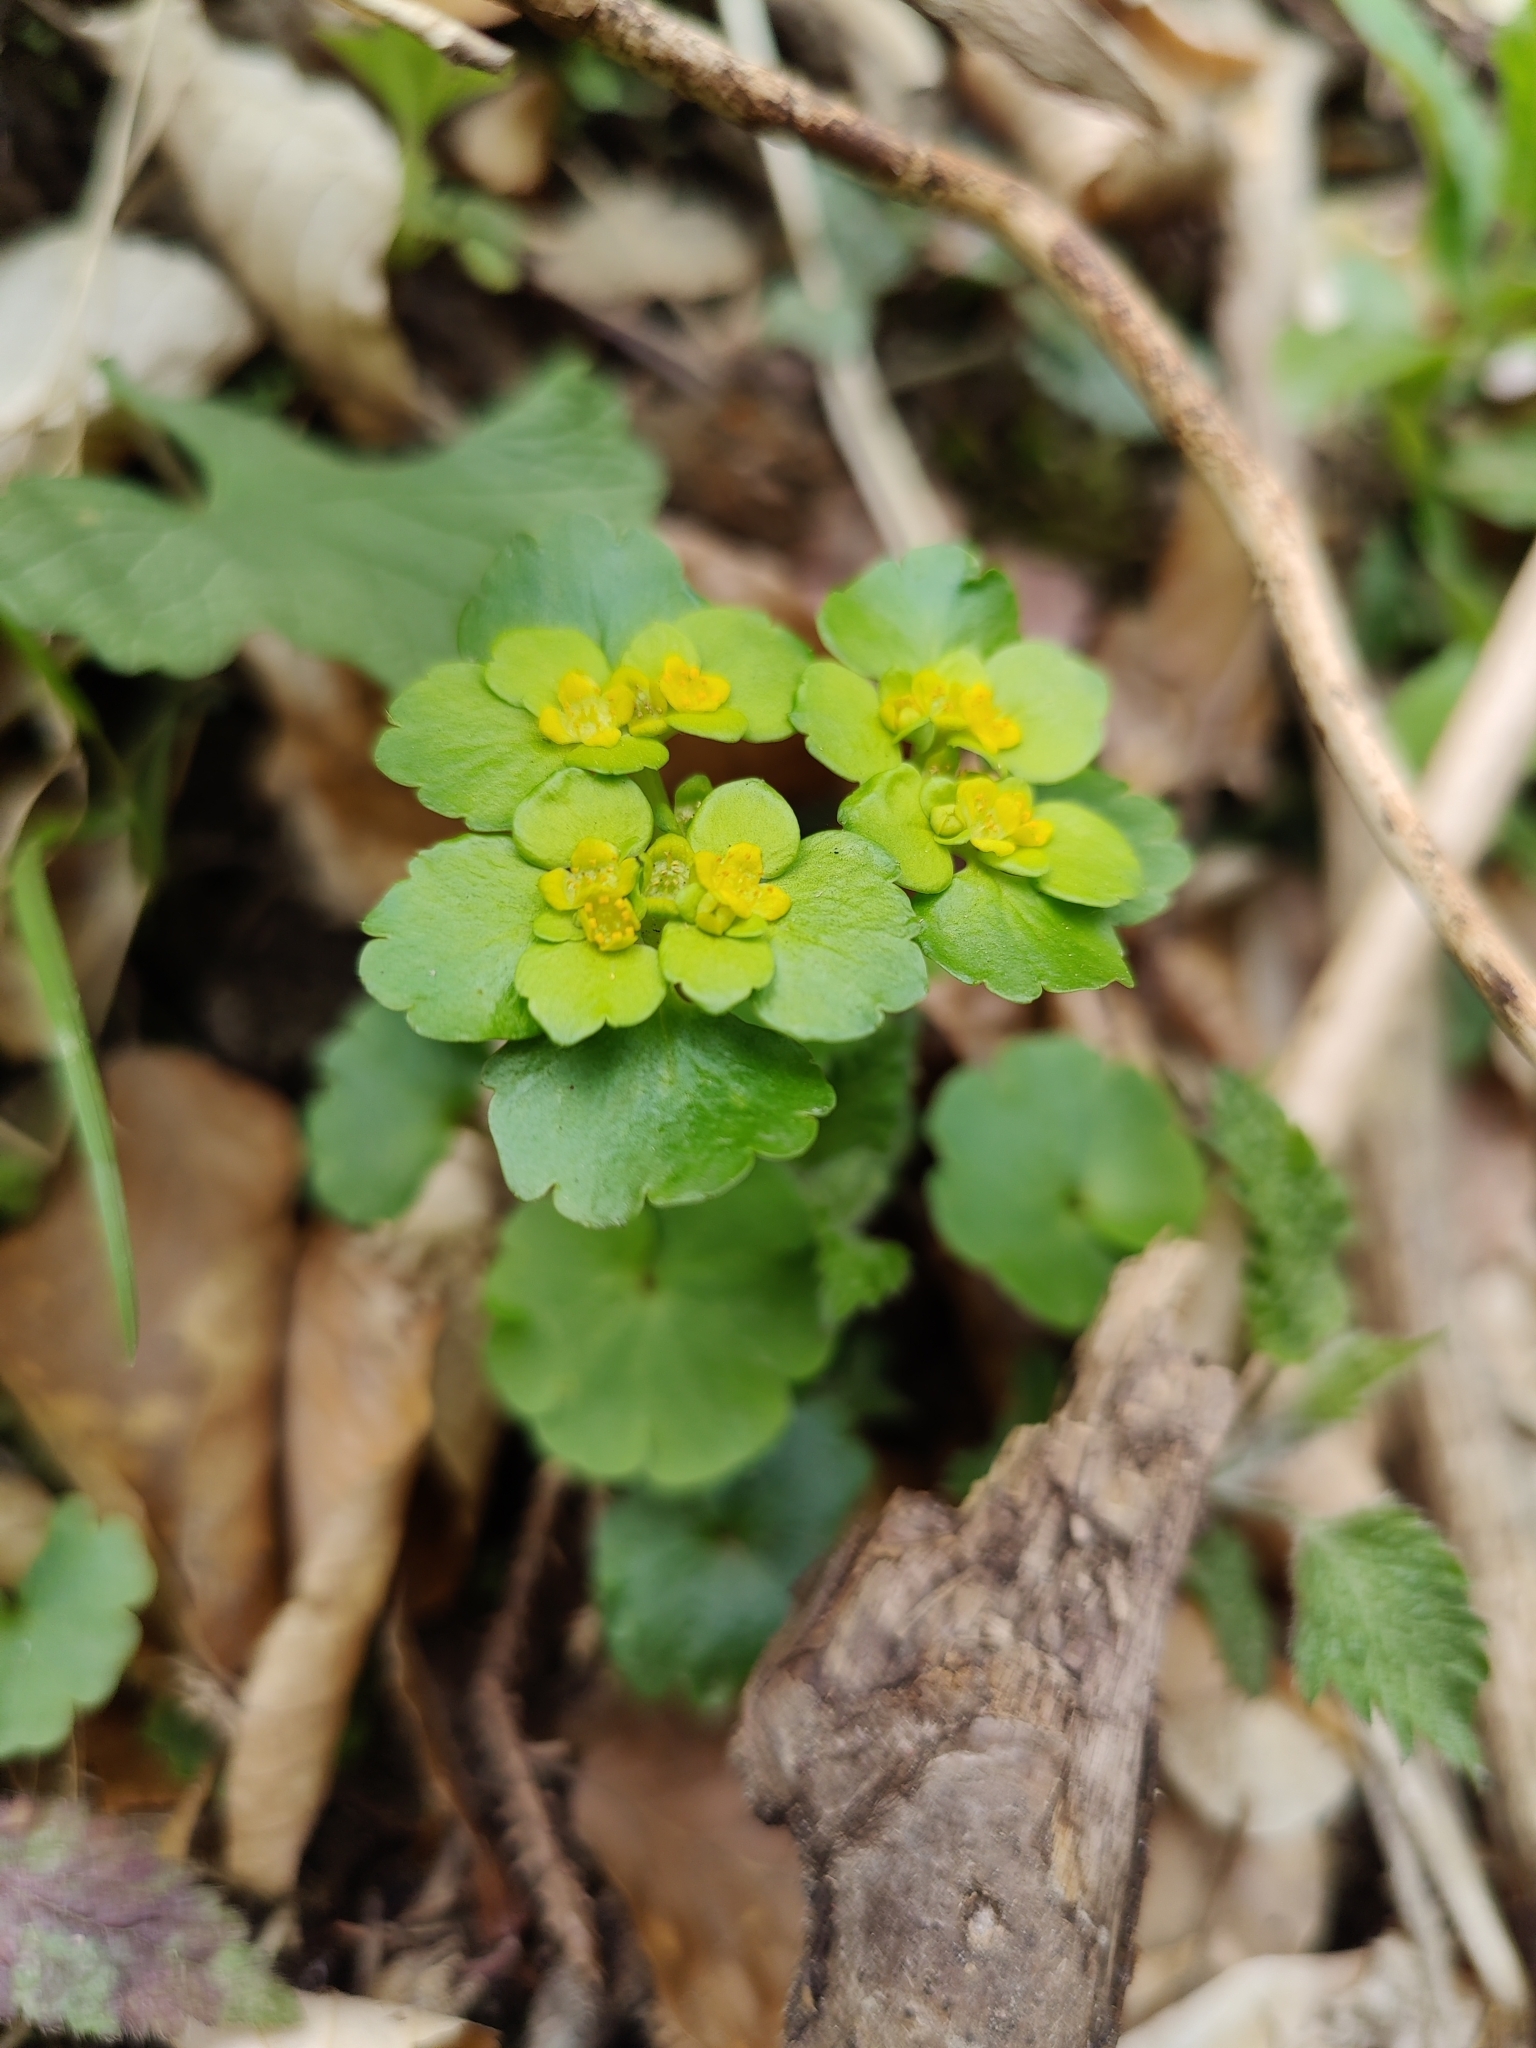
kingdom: Plantae
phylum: Tracheophyta
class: Magnoliopsida
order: Saxifragales
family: Saxifragaceae
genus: Chrysosplenium
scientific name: Chrysosplenium alternifolium
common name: Alternate-leaved golden-saxifrage
